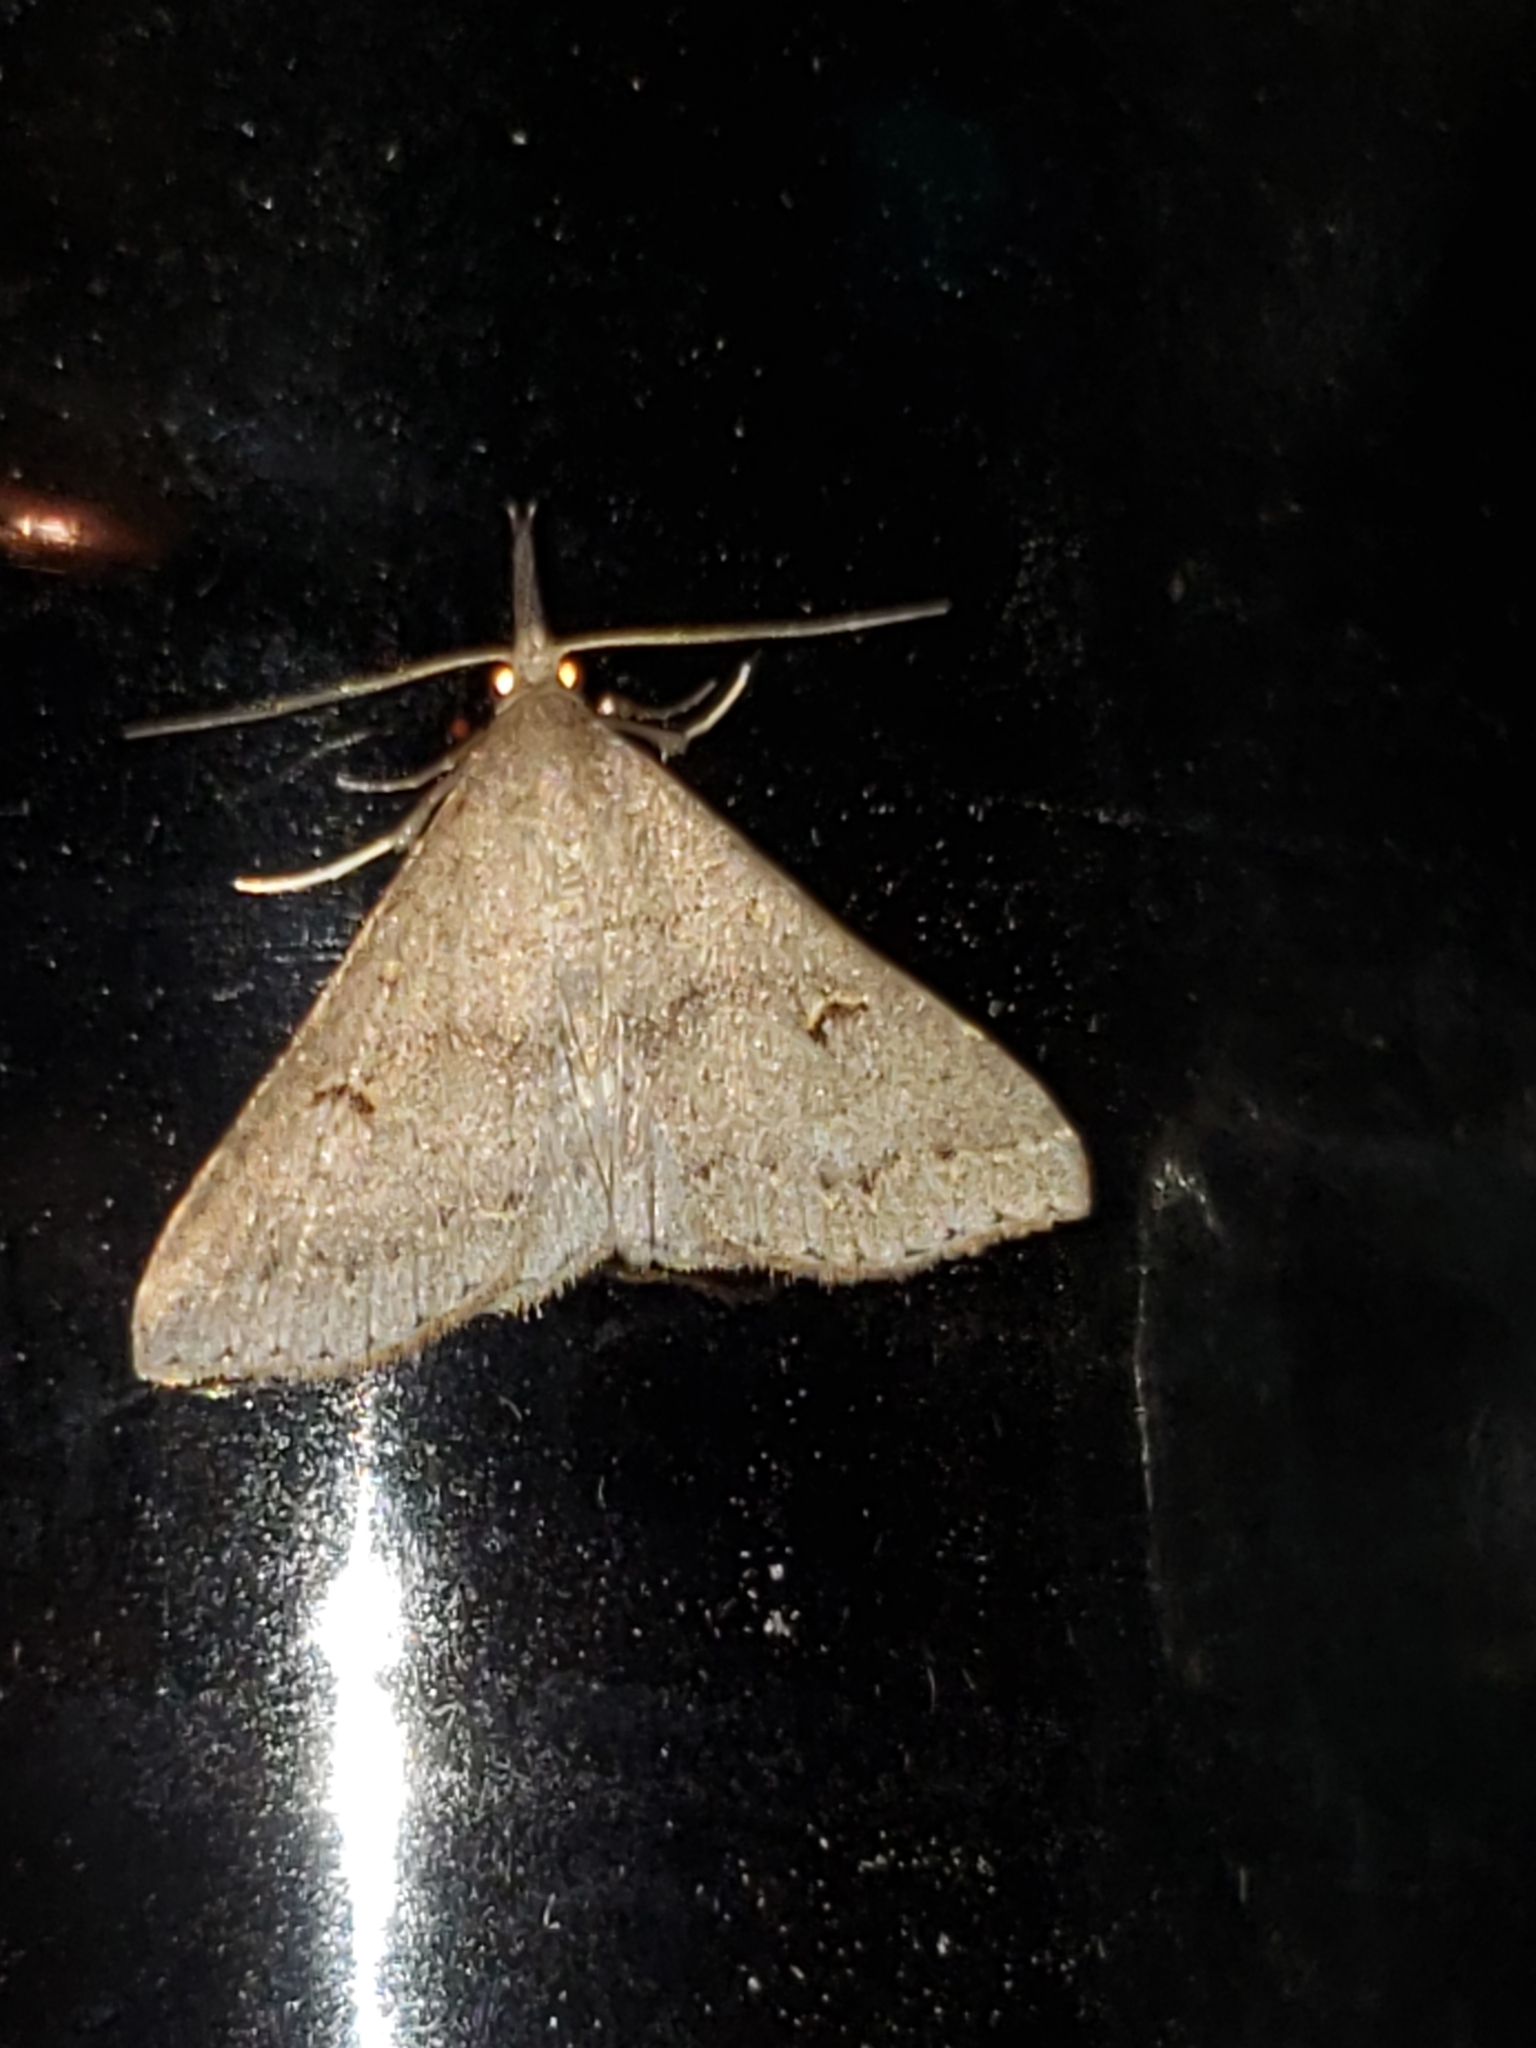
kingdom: Animalia
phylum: Arthropoda
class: Insecta
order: Lepidoptera
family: Erebidae
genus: Renia
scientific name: Renia adspergillus
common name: Speckled renia moth
